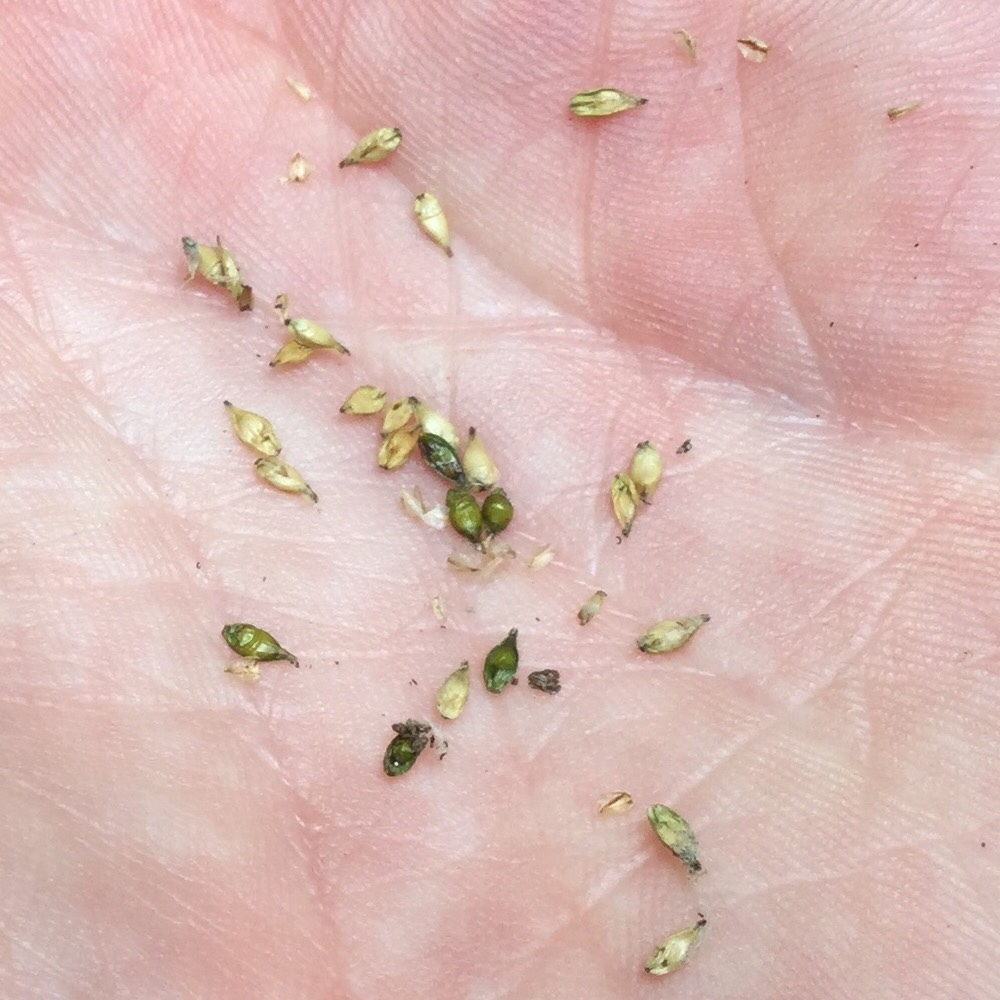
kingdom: Plantae
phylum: Tracheophyta
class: Liliopsida
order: Poales
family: Cyperaceae
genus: Carex
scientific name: Carex rosea
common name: Curly-styled wood sedge
